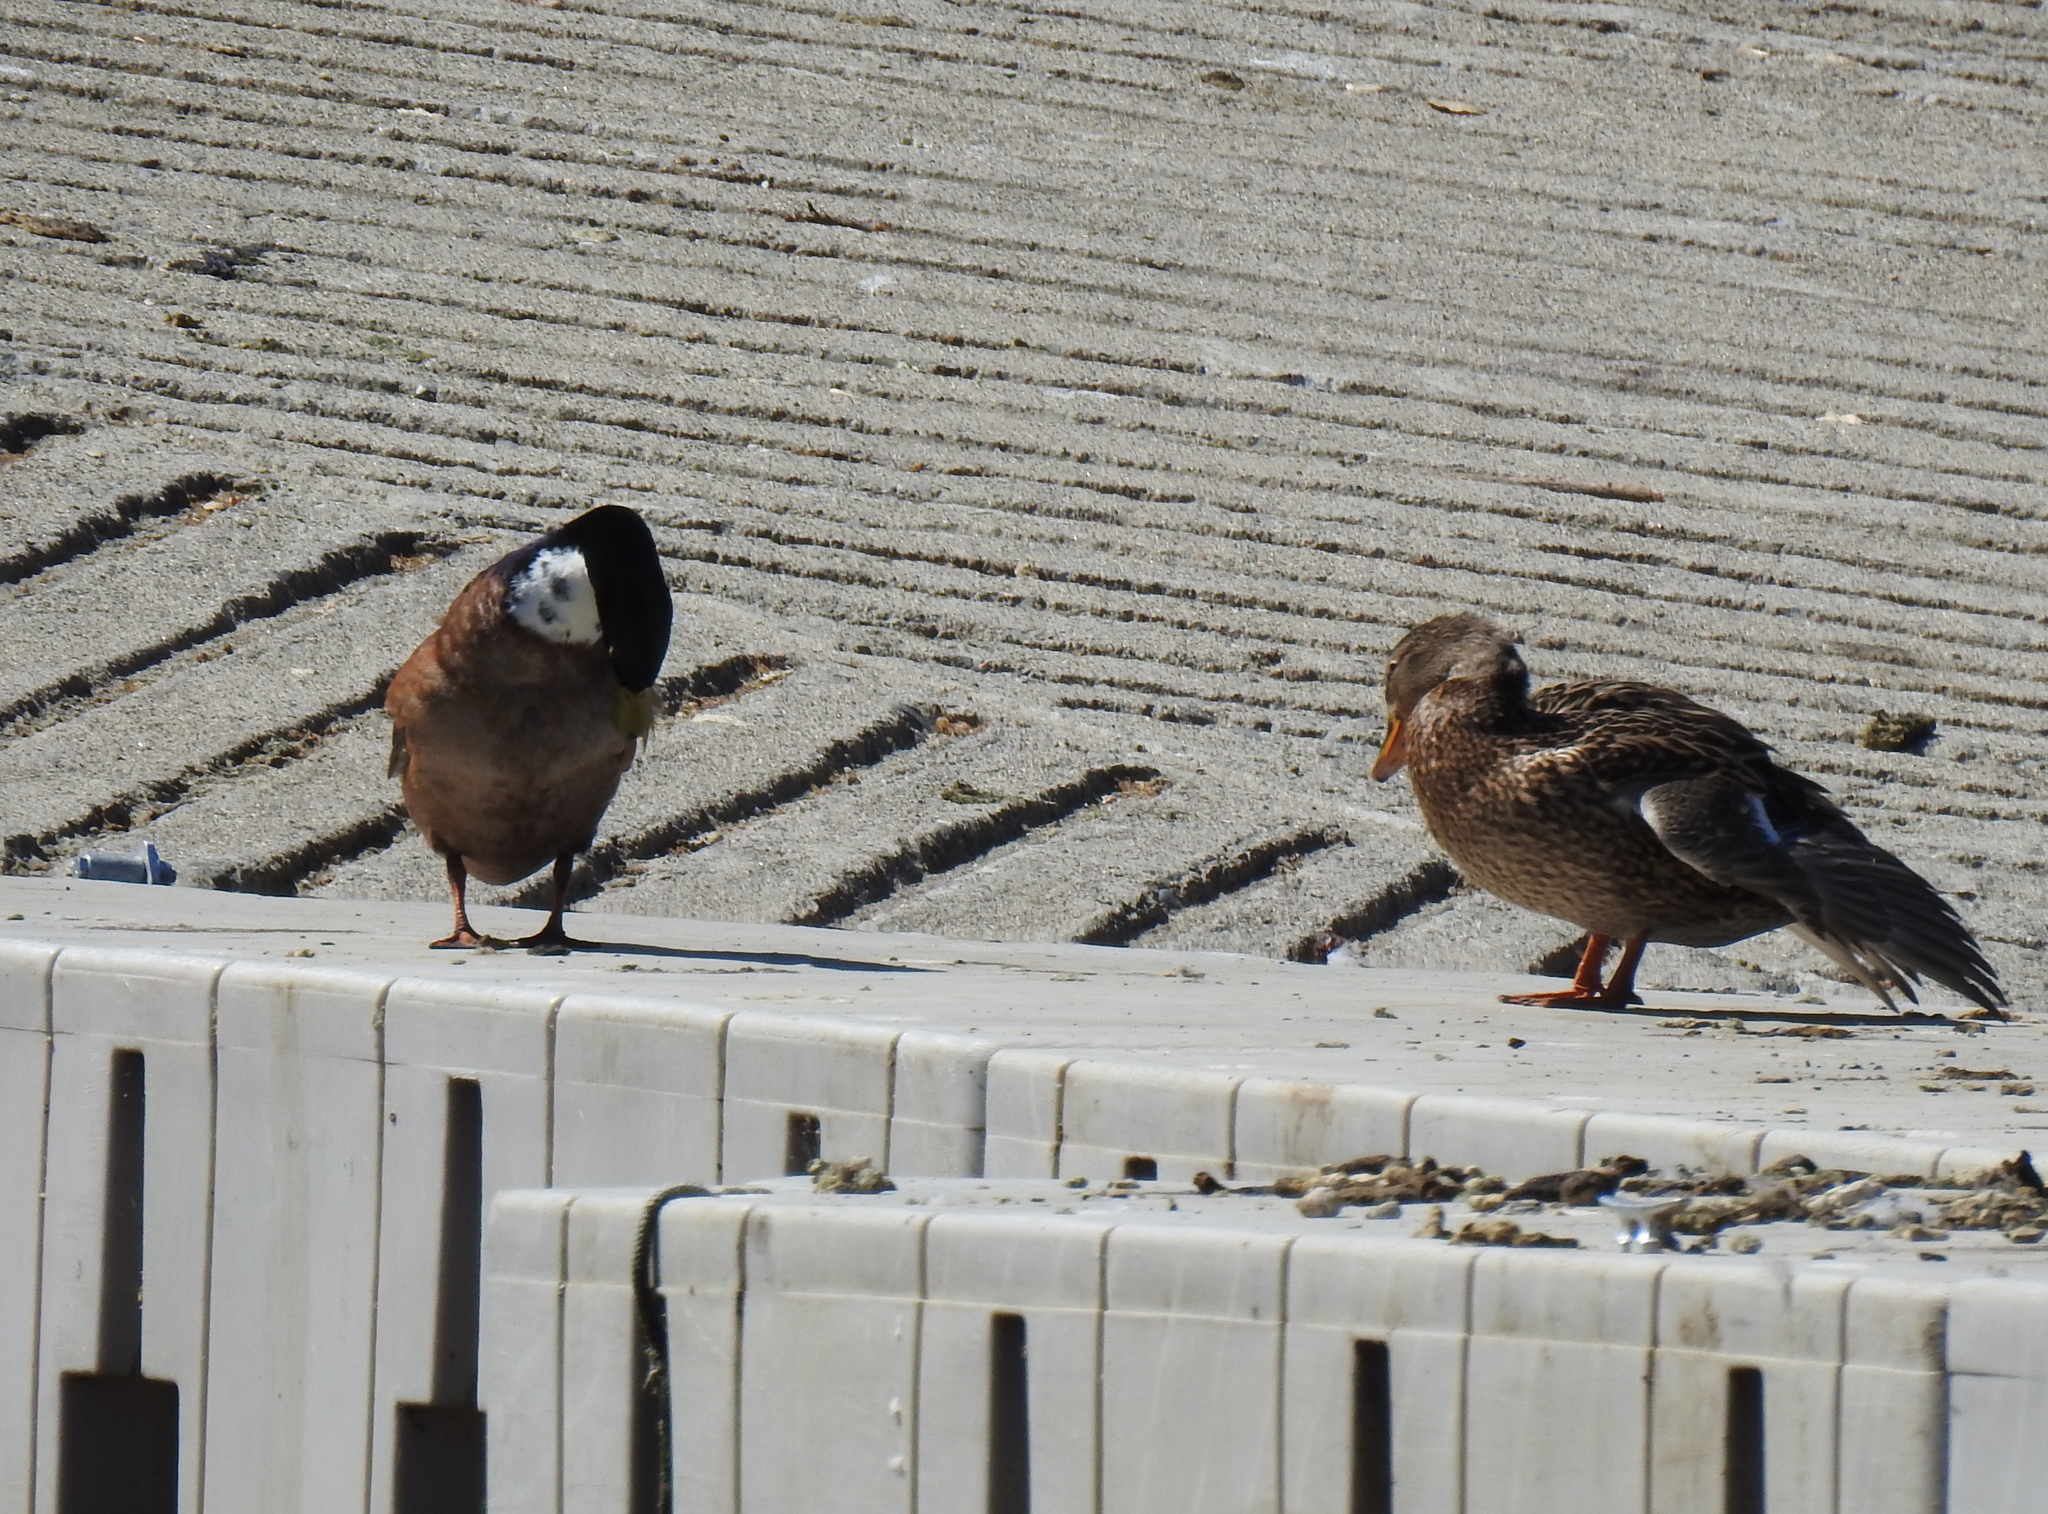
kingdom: Animalia
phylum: Chordata
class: Aves
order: Anseriformes
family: Anatidae
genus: Anas
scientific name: Anas platyrhynchos
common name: Mallard
